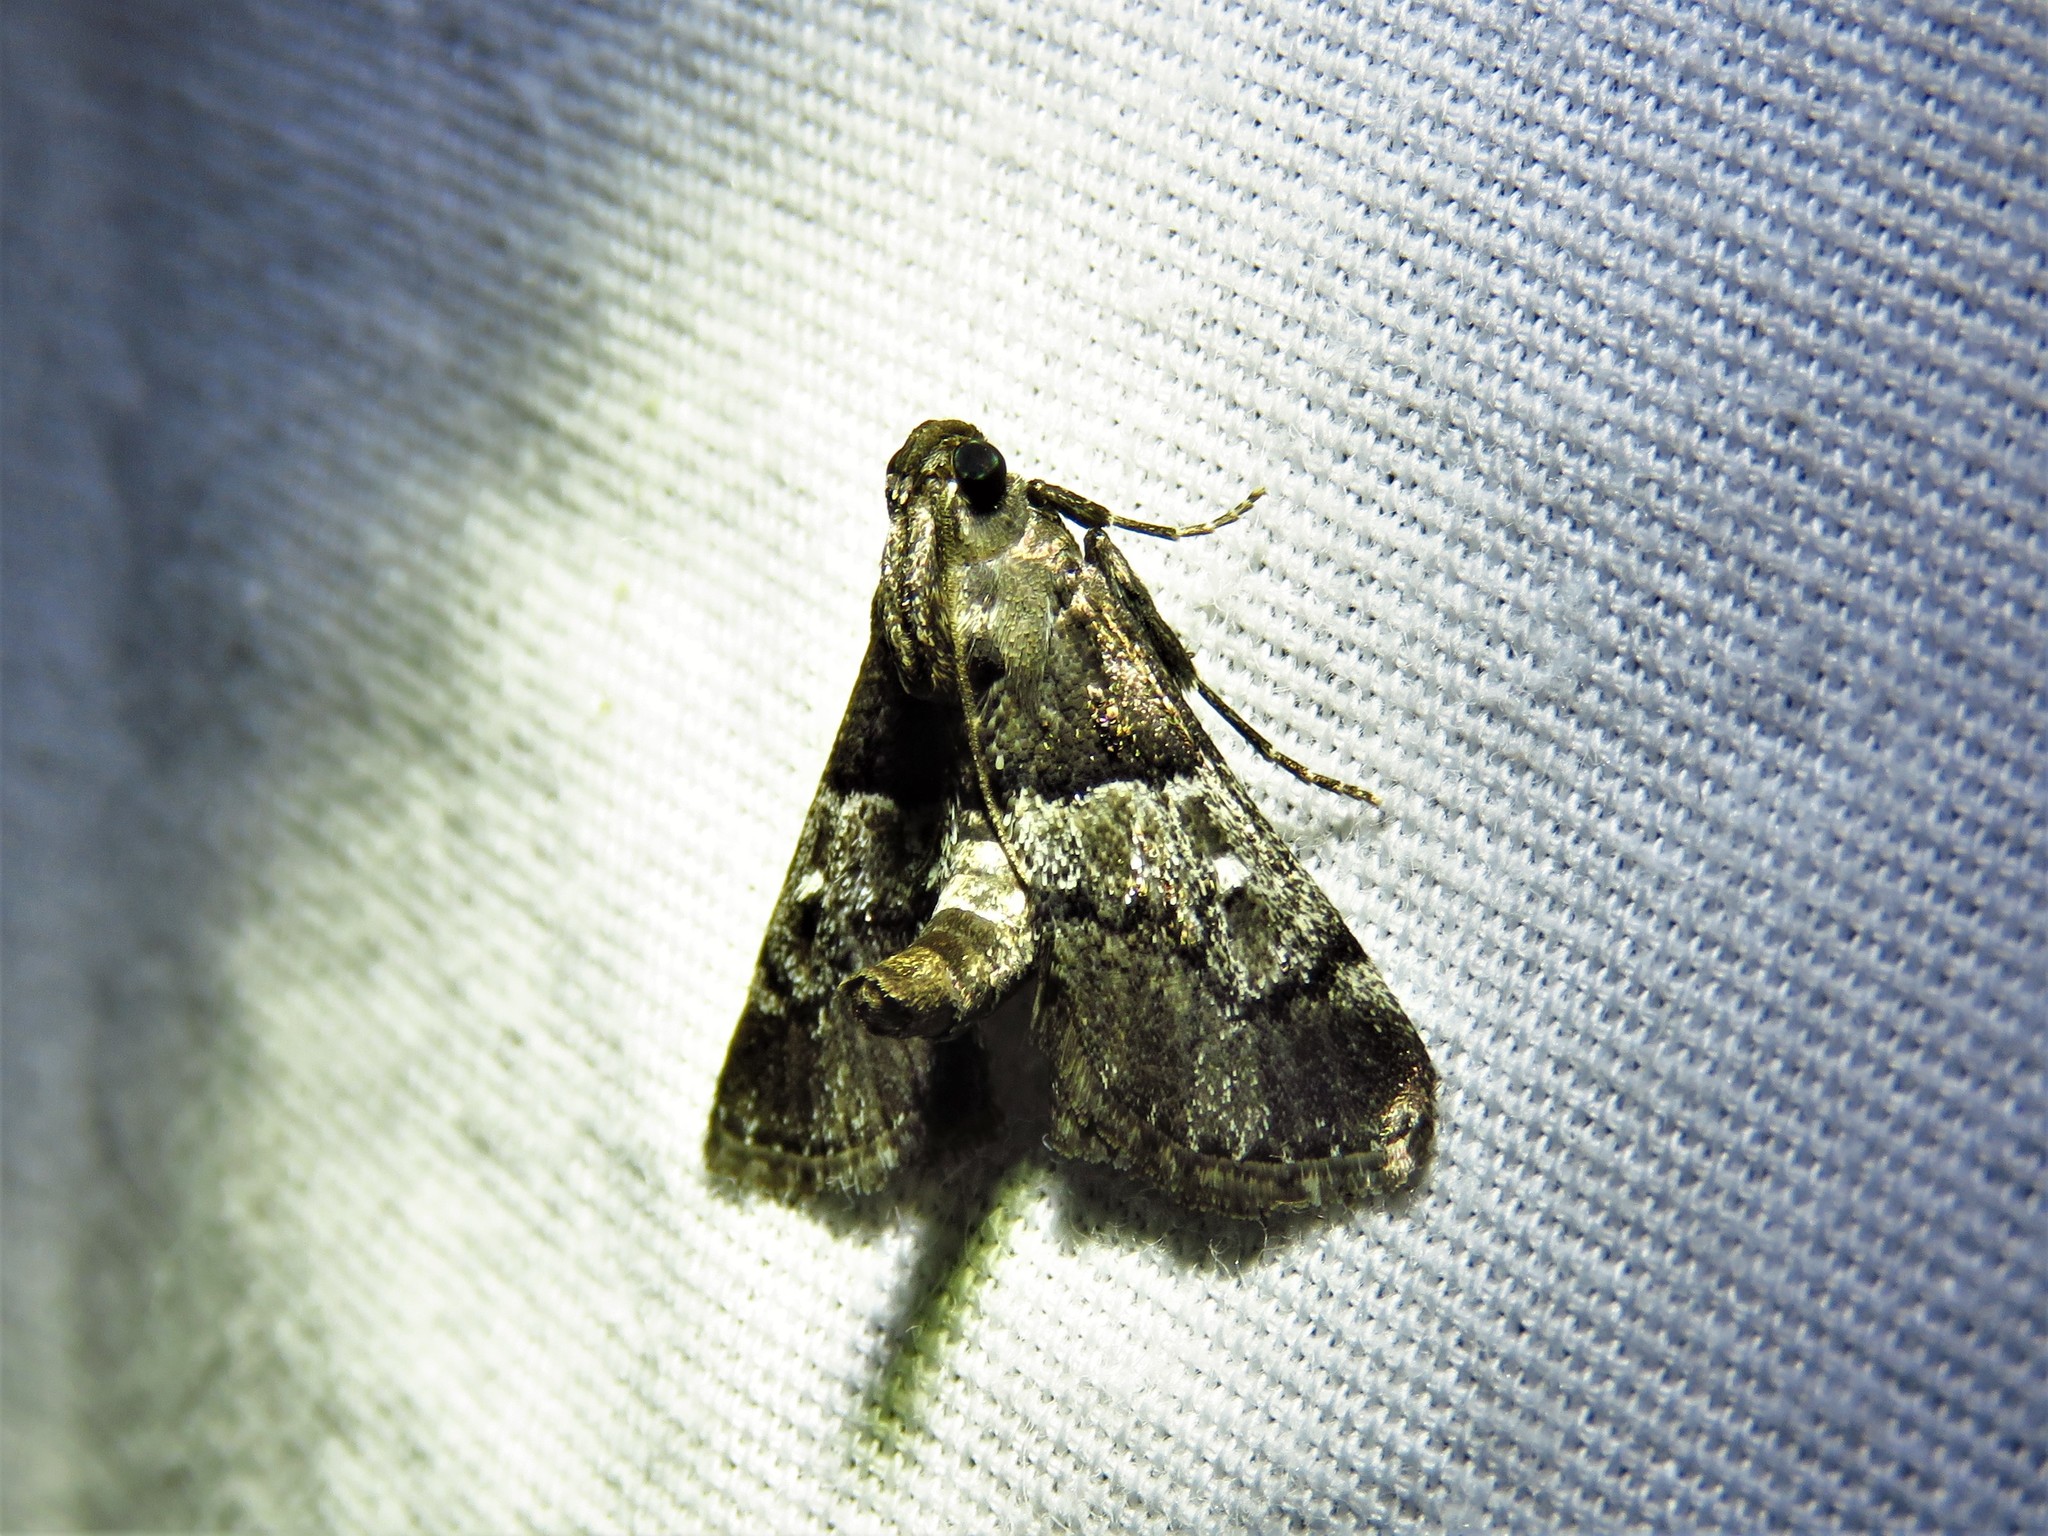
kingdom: Animalia
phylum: Arthropoda
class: Insecta
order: Lepidoptera
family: Pyralidae
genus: Macalla
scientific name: Macalla zelleri
